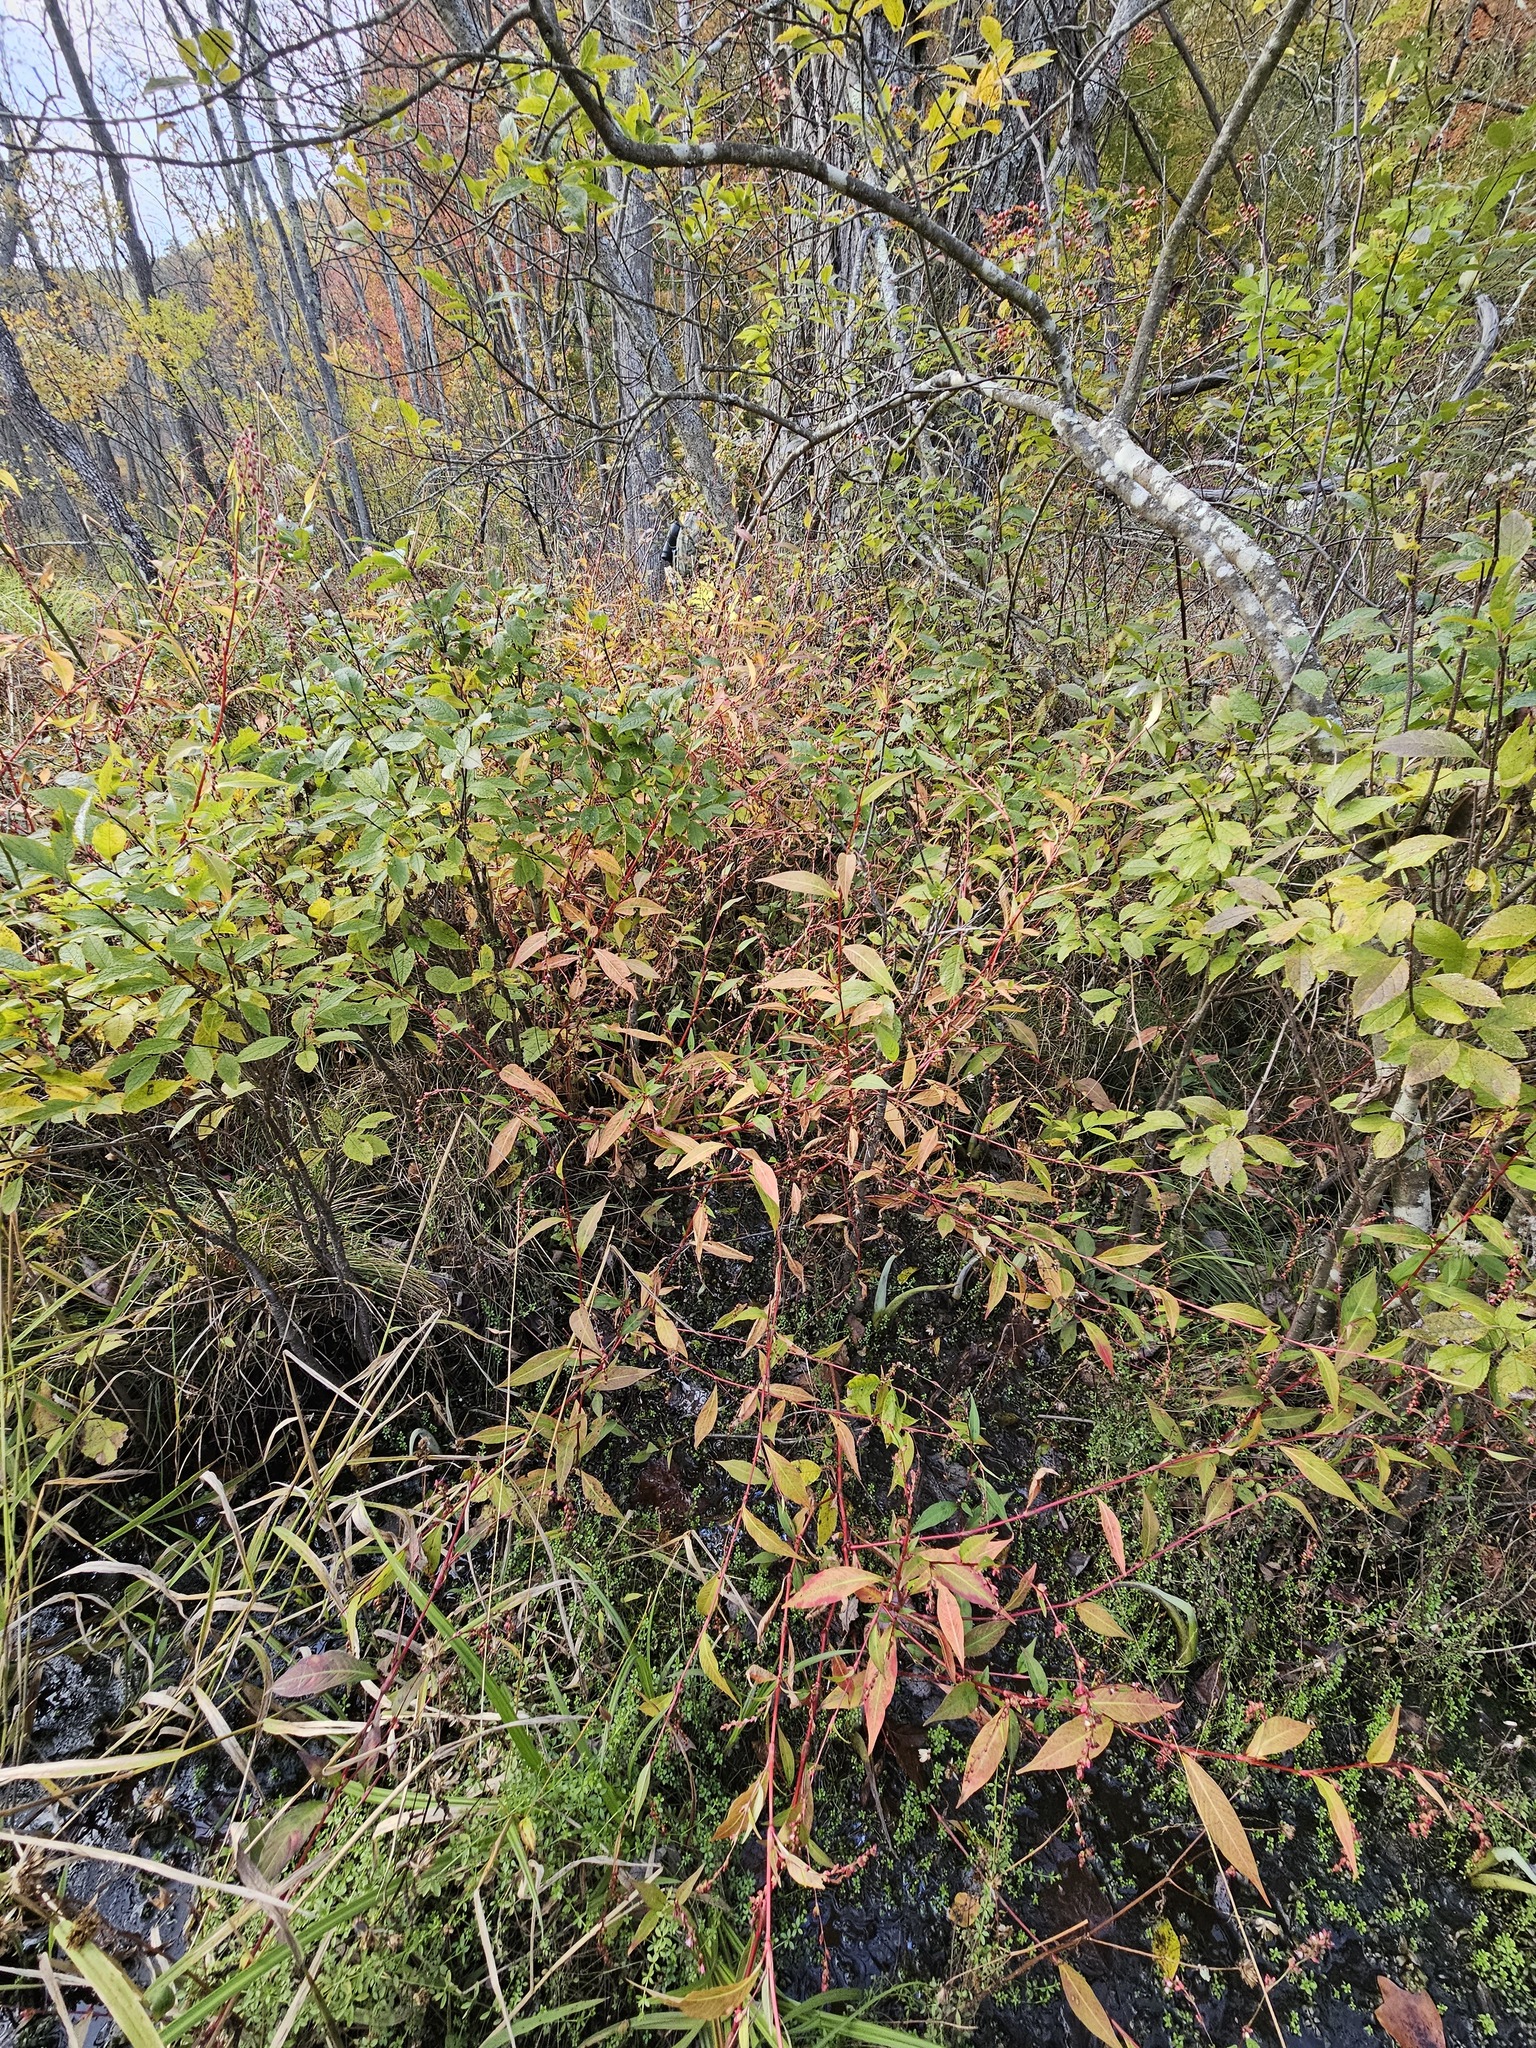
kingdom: Plantae
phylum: Tracheophyta
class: Magnoliopsida
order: Caryophyllales
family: Polygonaceae
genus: Persicaria
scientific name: Persicaria hydropiper
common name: Water-pepper
